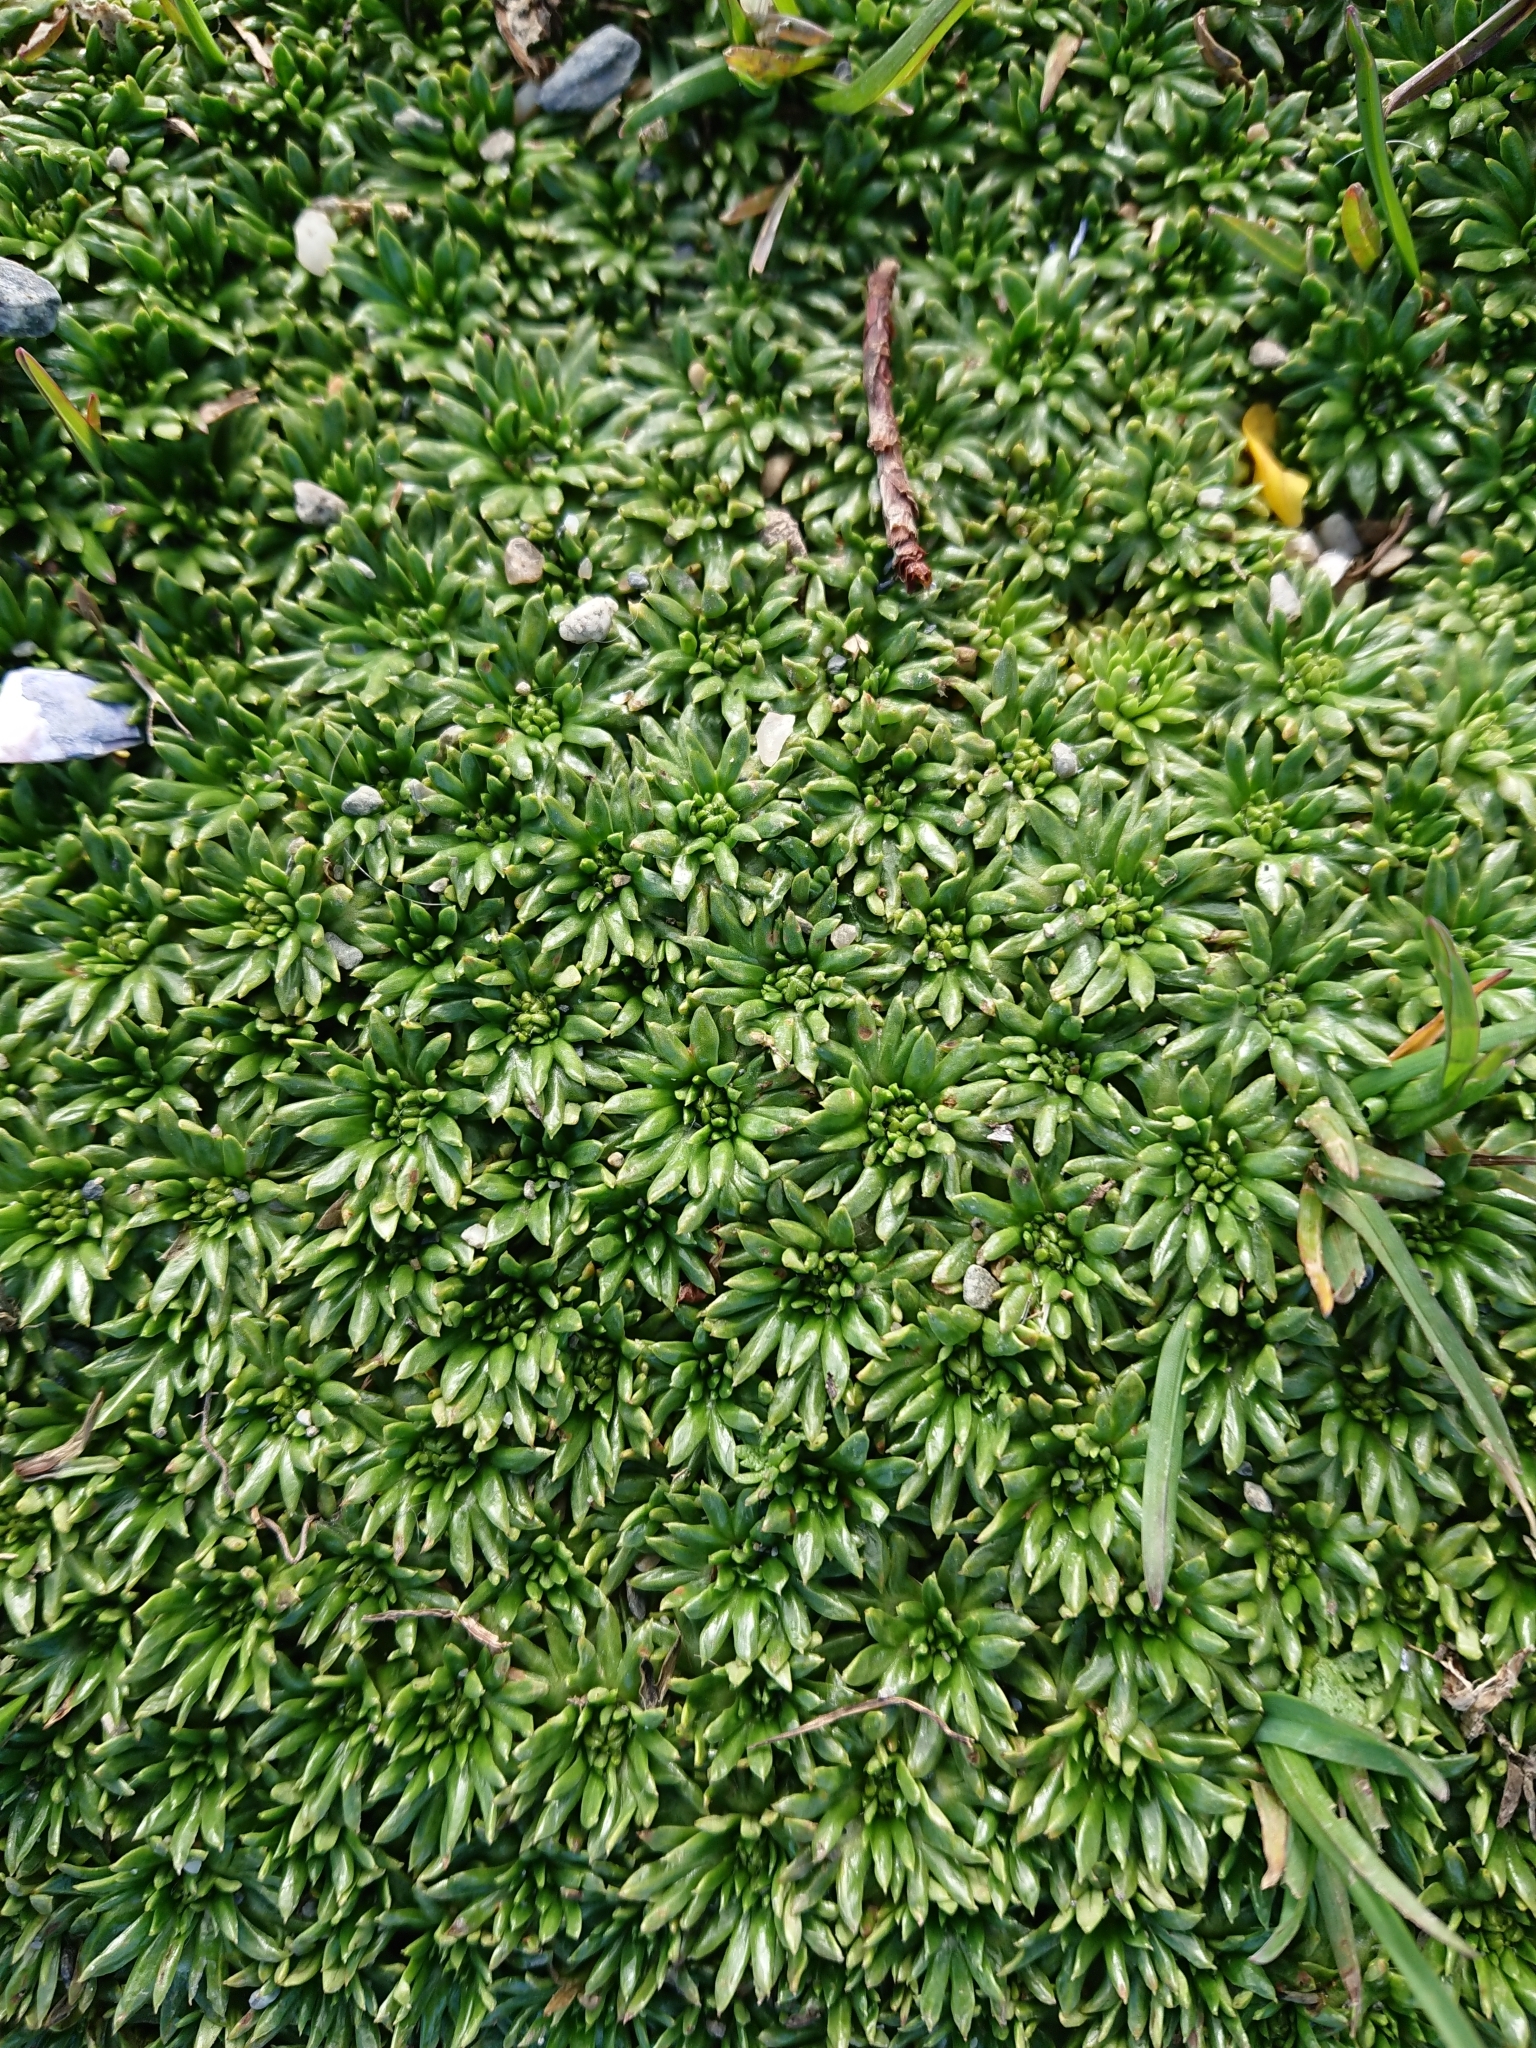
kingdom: Plantae
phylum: Tracheophyta
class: Magnoliopsida
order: Apiales
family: Apiaceae
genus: Azorella
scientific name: Azorella trifurcata
